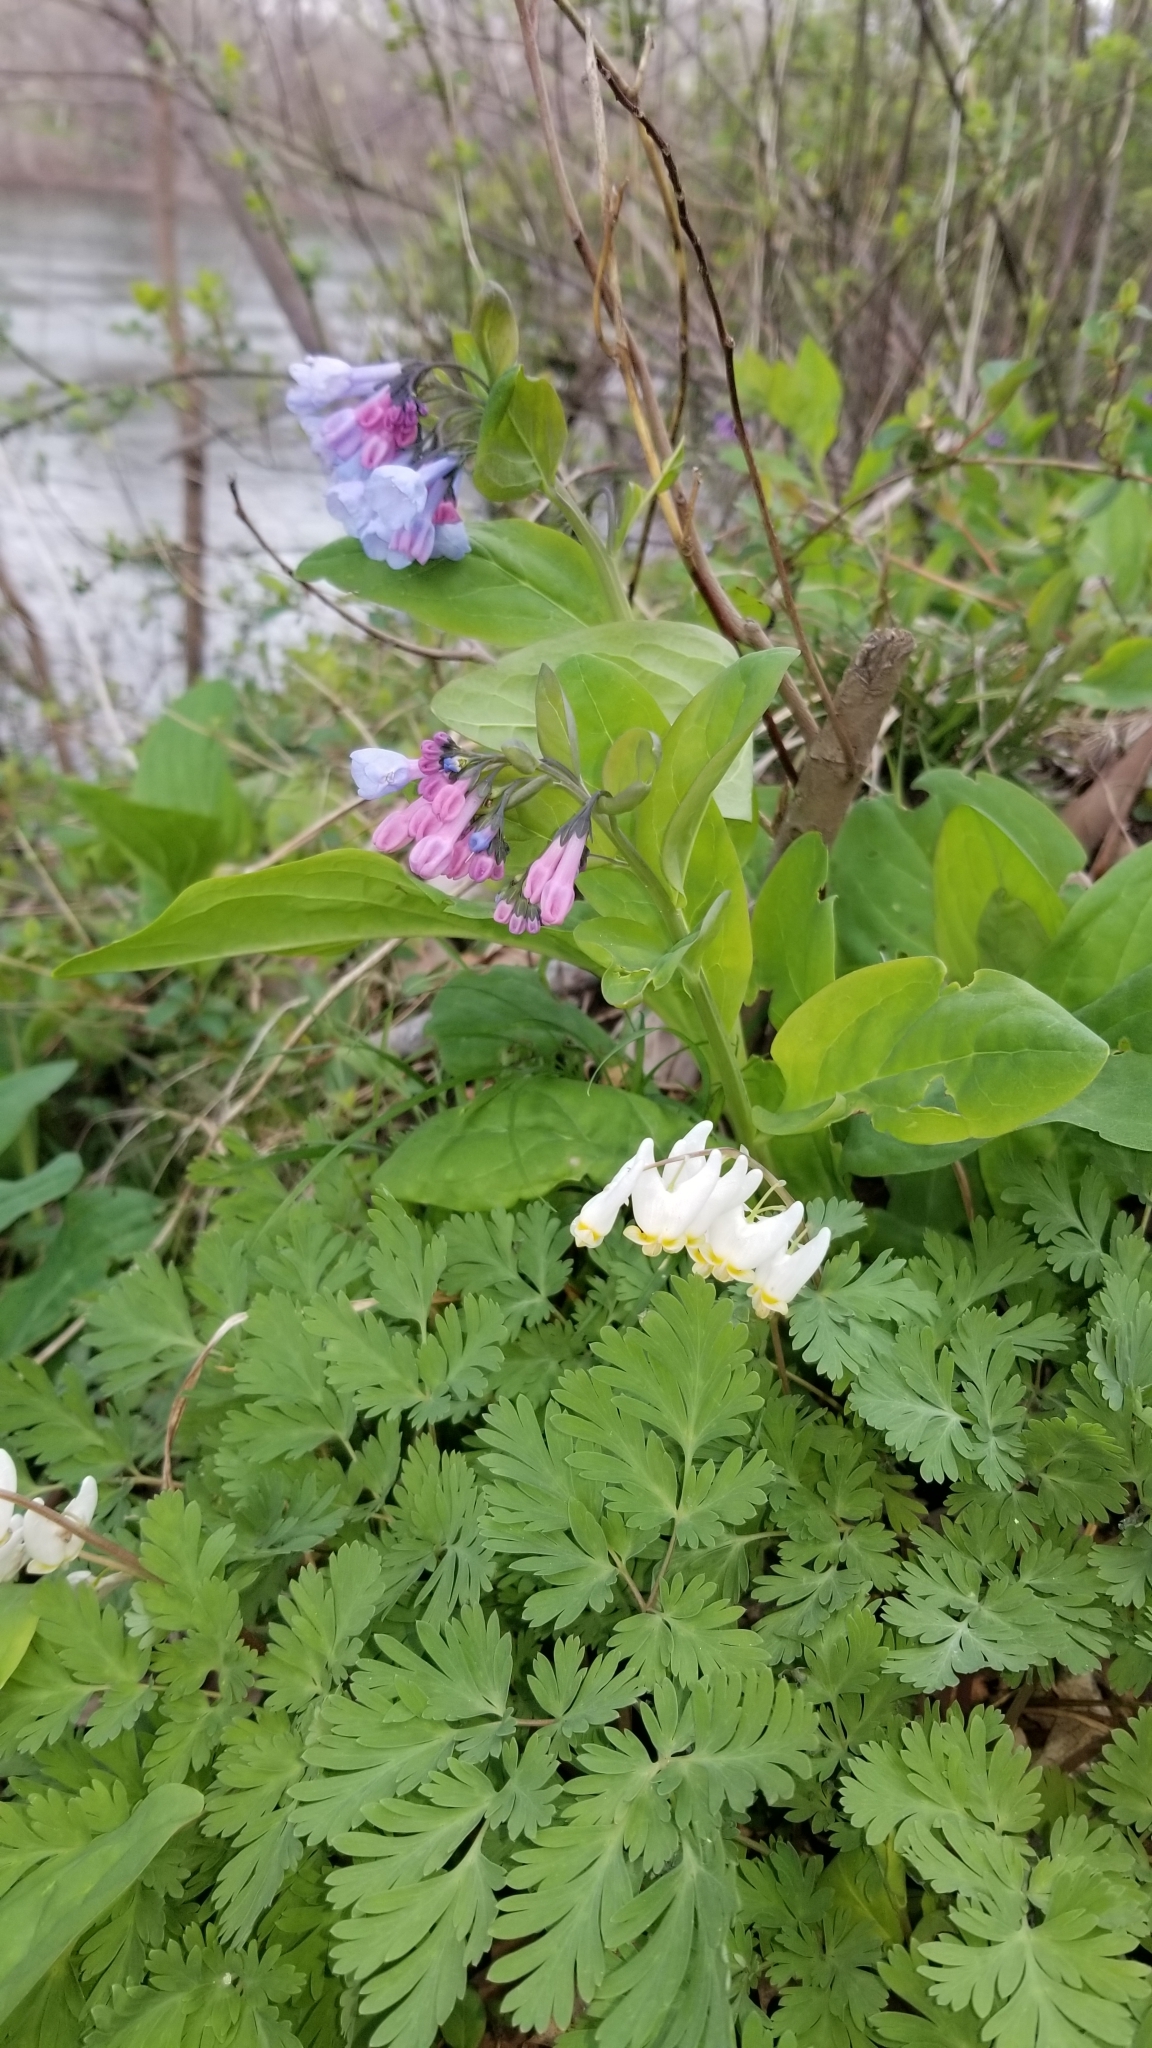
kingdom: Plantae
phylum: Tracheophyta
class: Magnoliopsida
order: Ranunculales
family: Papaveraceae
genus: Dicentra
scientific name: Dicentra cucullaria
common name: Dutchman's breeches
